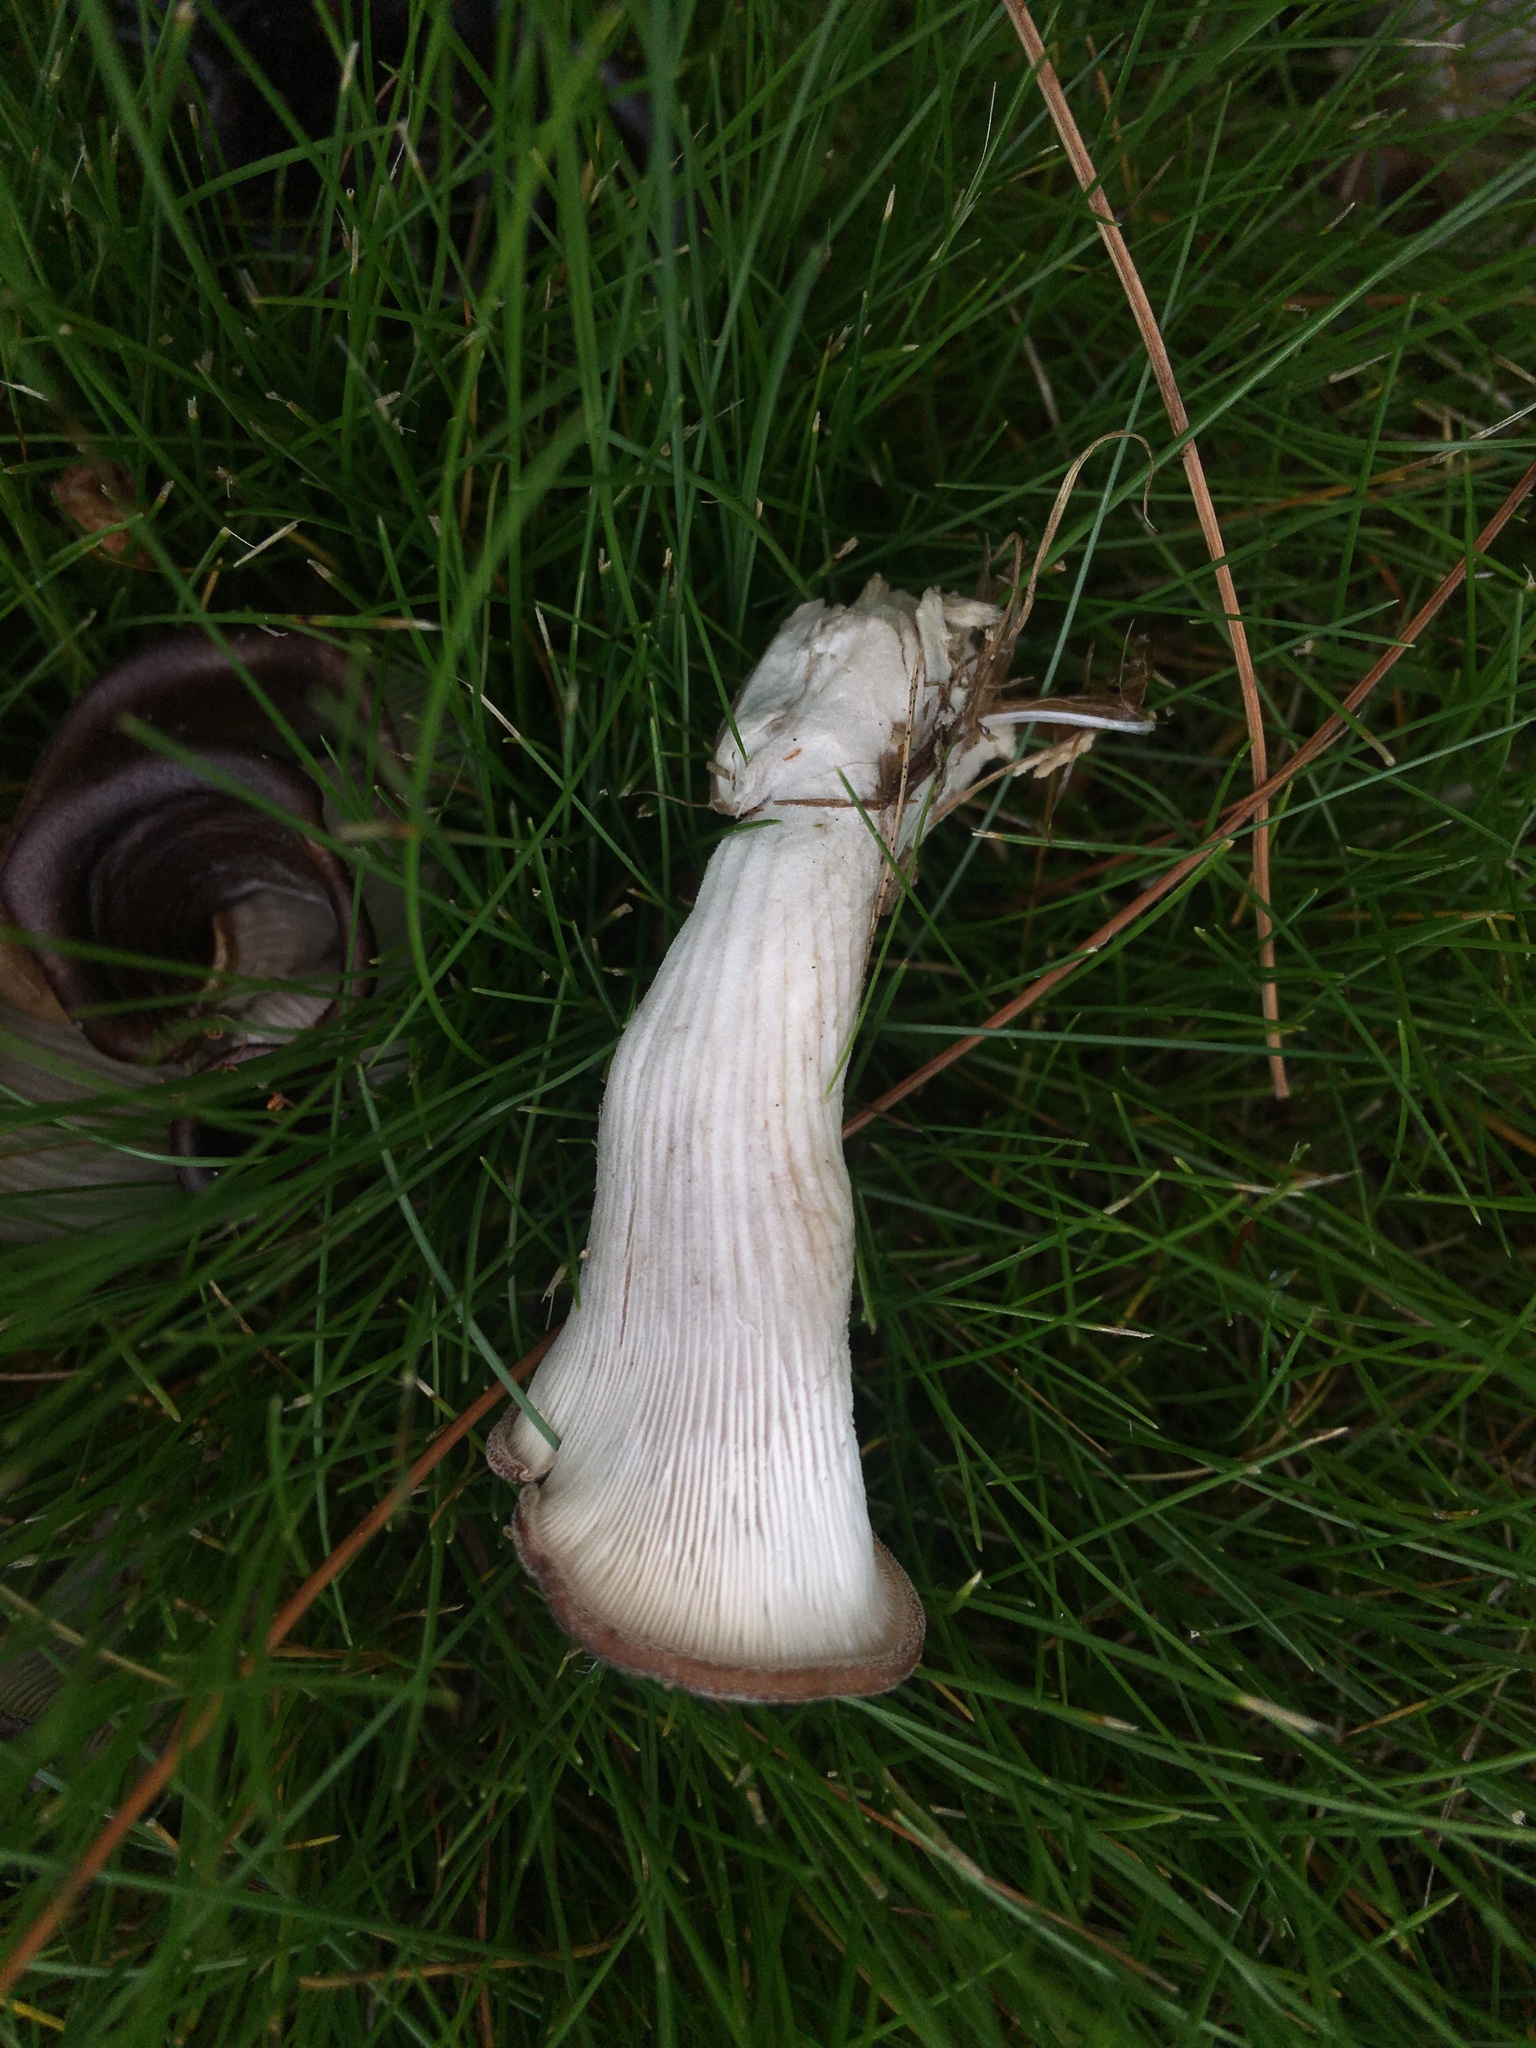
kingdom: Fungi
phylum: Basidiomycota
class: Agaricomycetes
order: Agaricales
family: Pleurotaceae
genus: Hohenbuehelia
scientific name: Hohenbuehelia petaloides
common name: Shoehorn oyster
